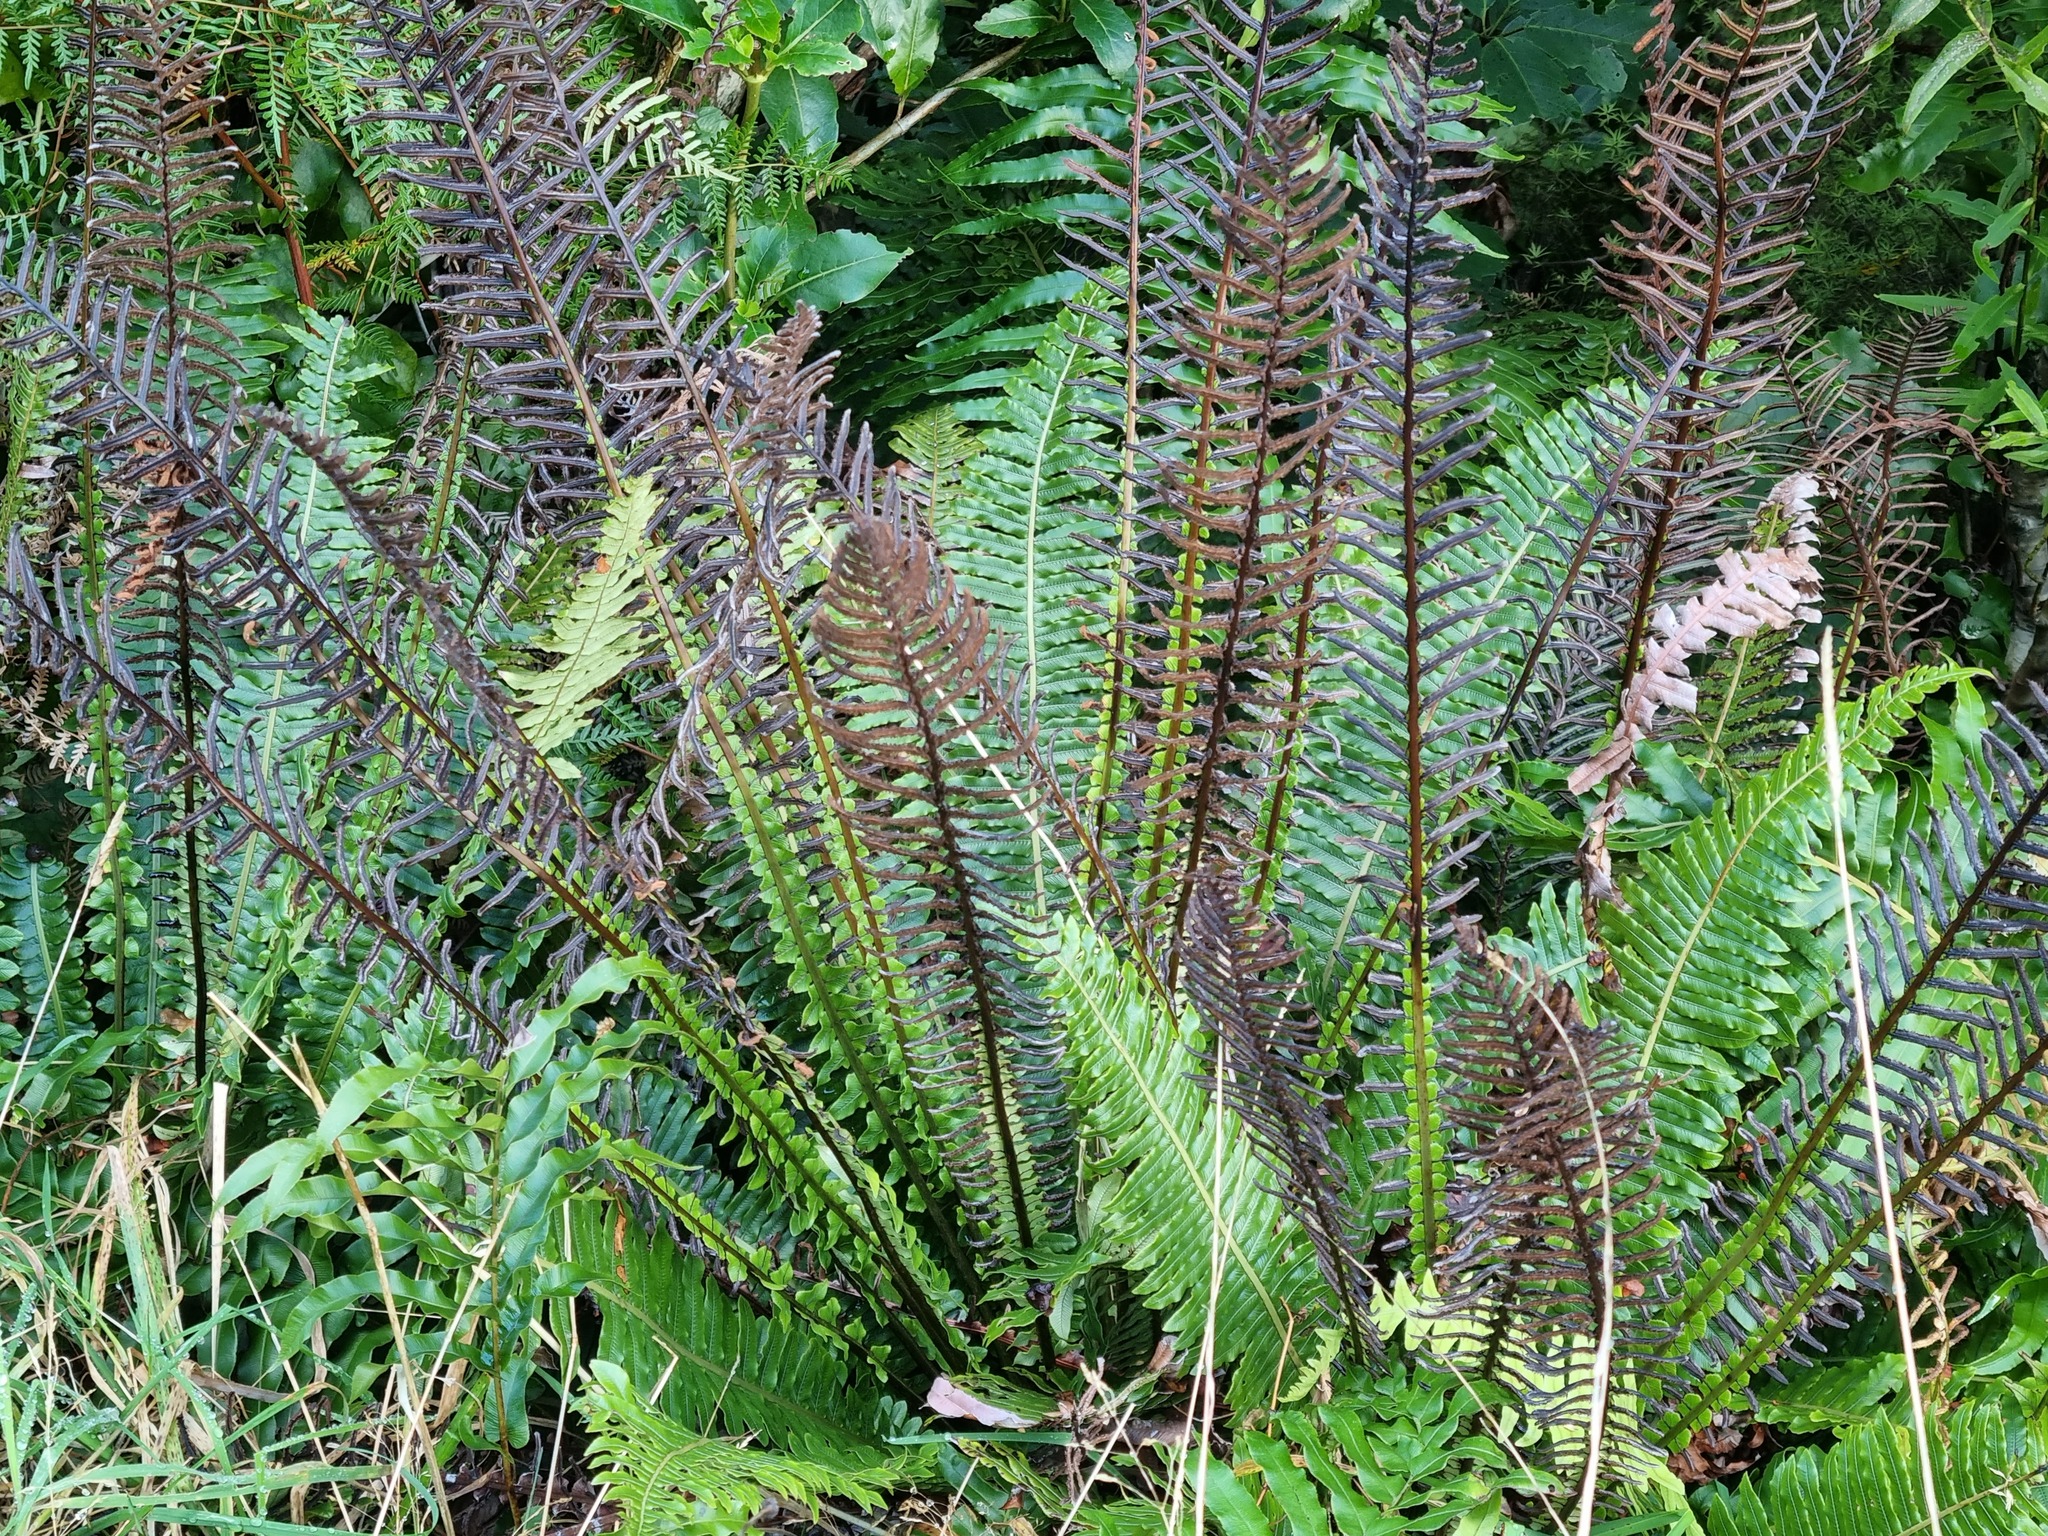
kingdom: Plantae
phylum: Tracheophyta
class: Polypodiopsida
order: Polypodiales
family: Blechnaceae
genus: Lomaria
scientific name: Lomaria discolor
